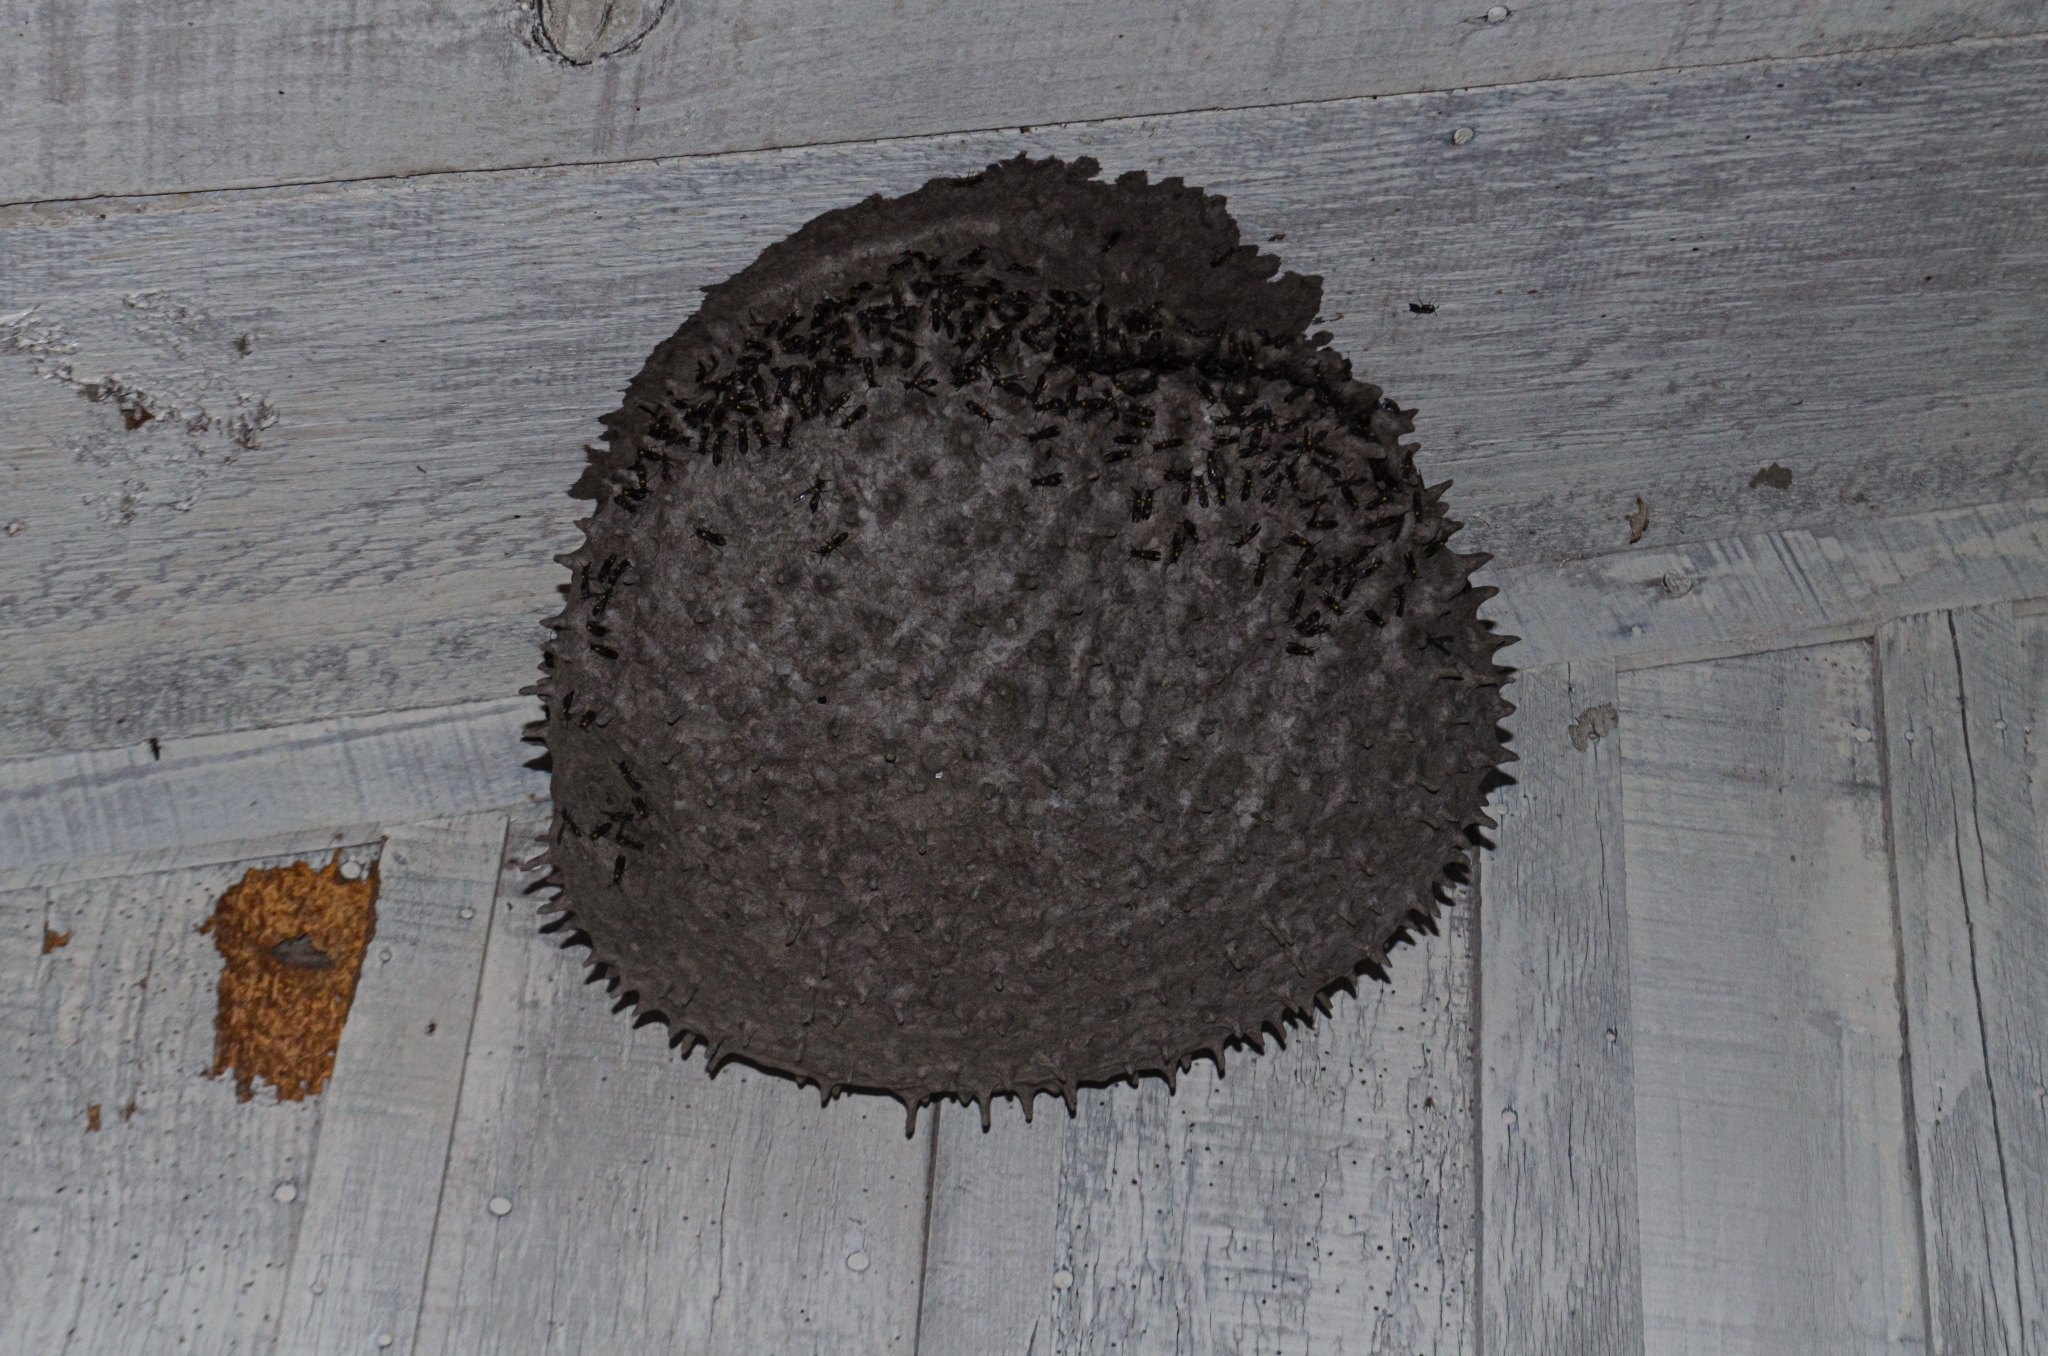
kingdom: Animalia
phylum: Arthropoda
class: Insecta
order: Hymenoptera
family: Eumenidae
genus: Polybia
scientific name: Polybia scutellaris
